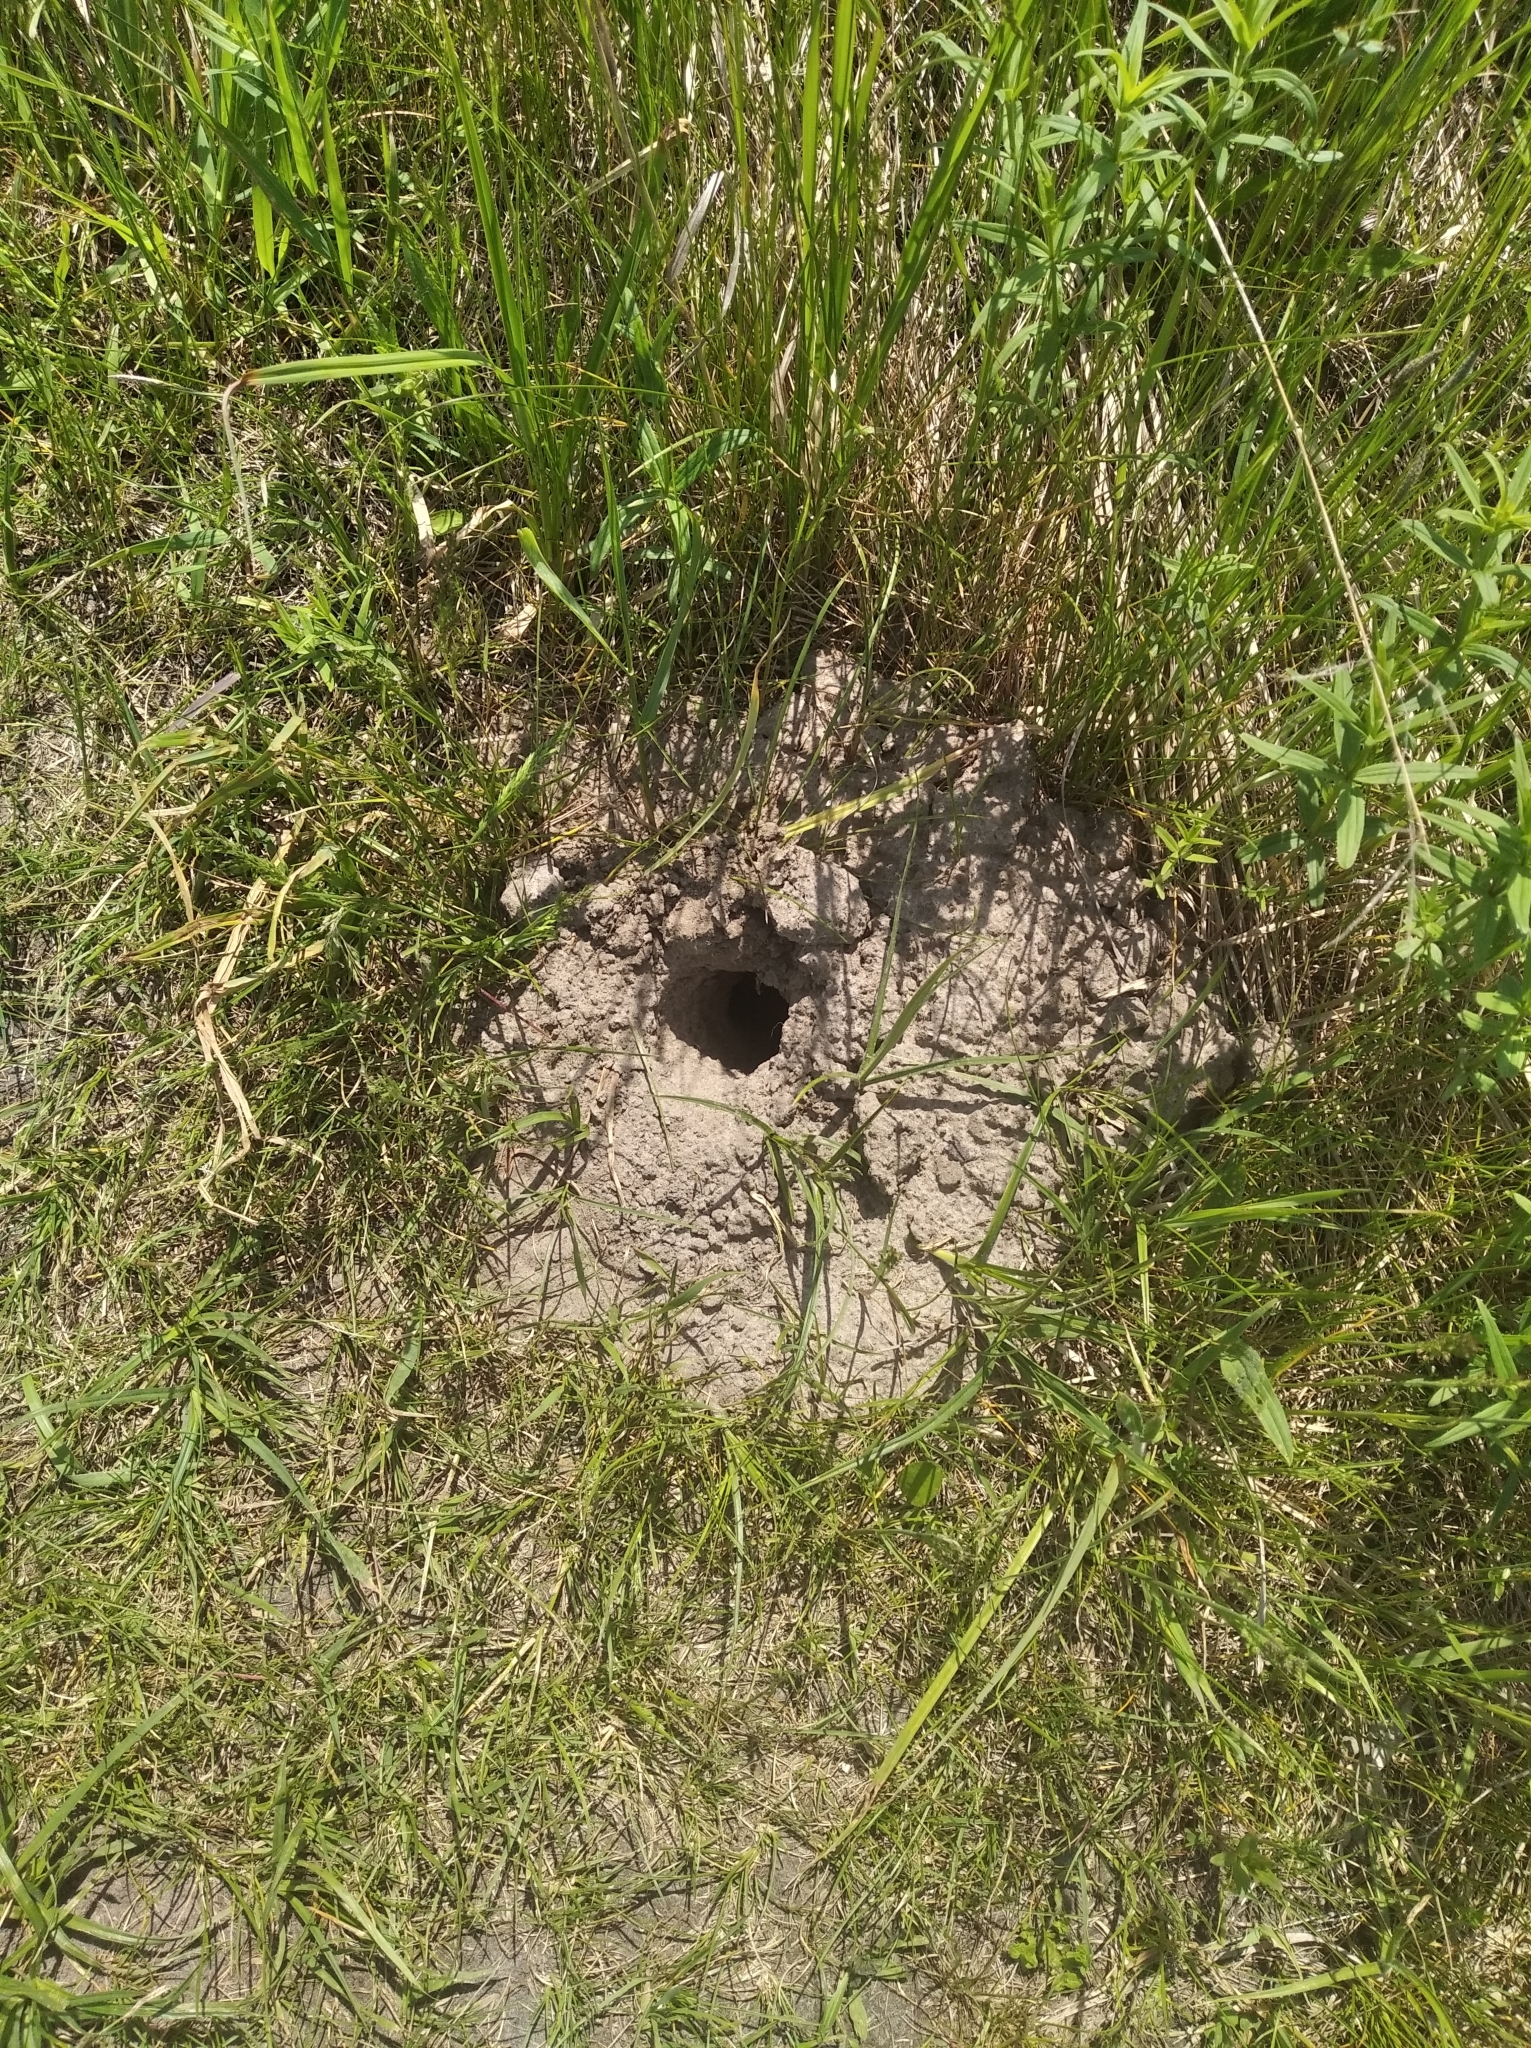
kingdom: Animalia
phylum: Chordata
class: Mammalia
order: Soricomorpha
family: Talpidae
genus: Talpa
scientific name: Talpa europaea
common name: European mole
